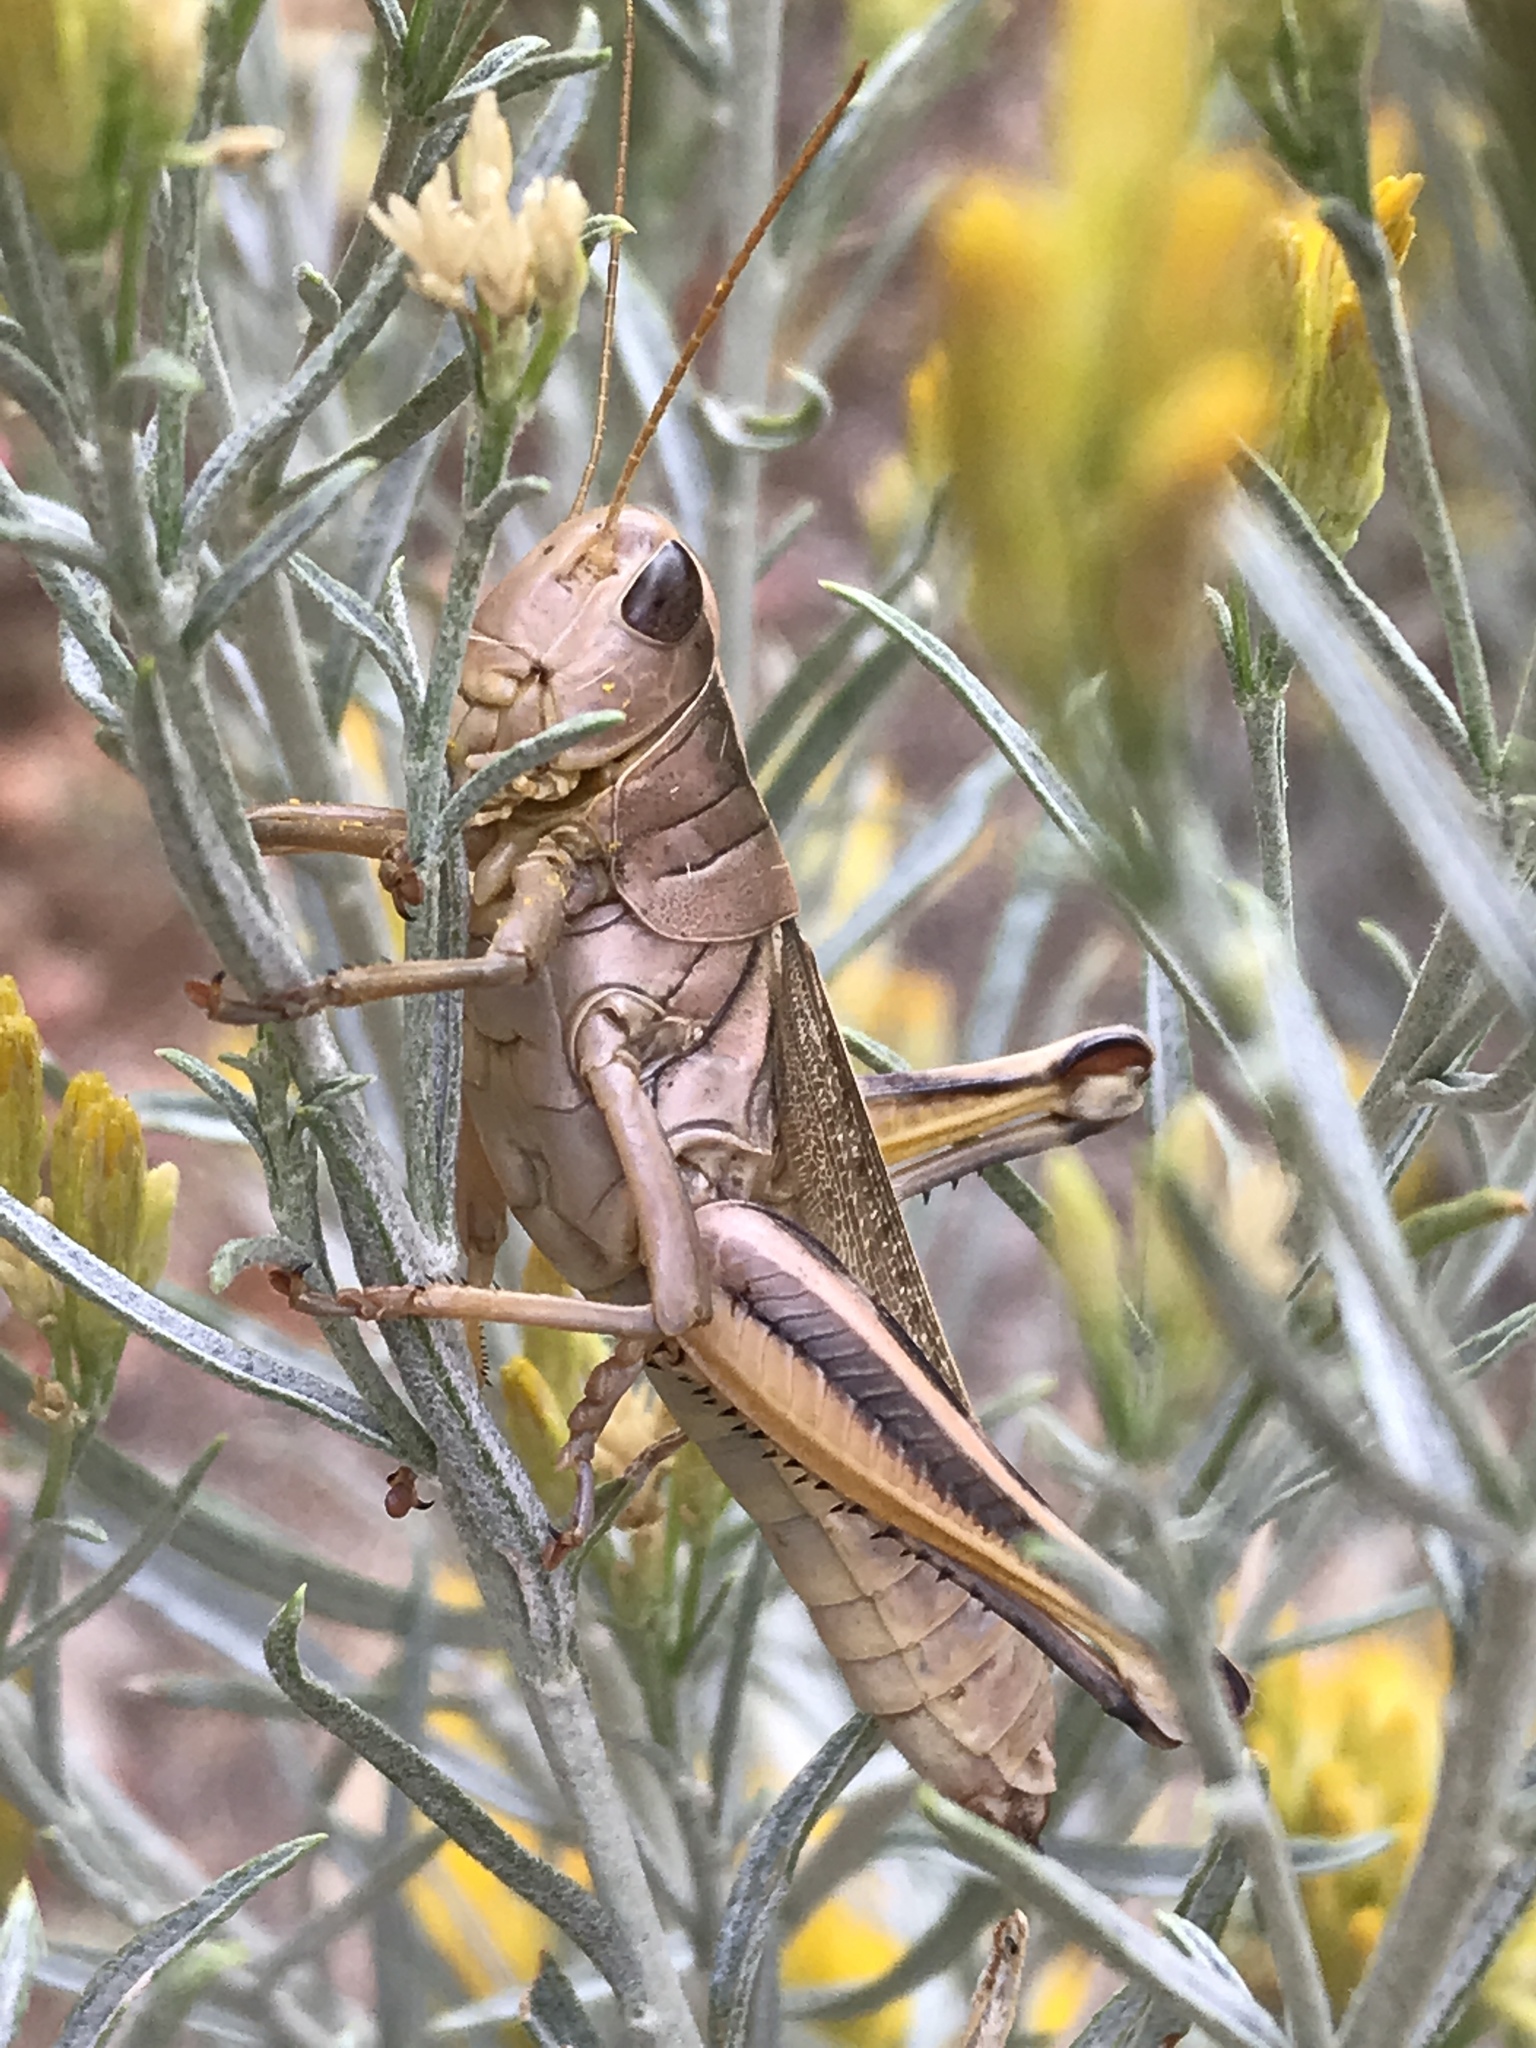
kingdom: Animalia
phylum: Arthropoda
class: Insecta
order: Orthoptera
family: Acrididae
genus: Melanoplus
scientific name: Melanoplus bivittatus
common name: Two-striped grasshopper
